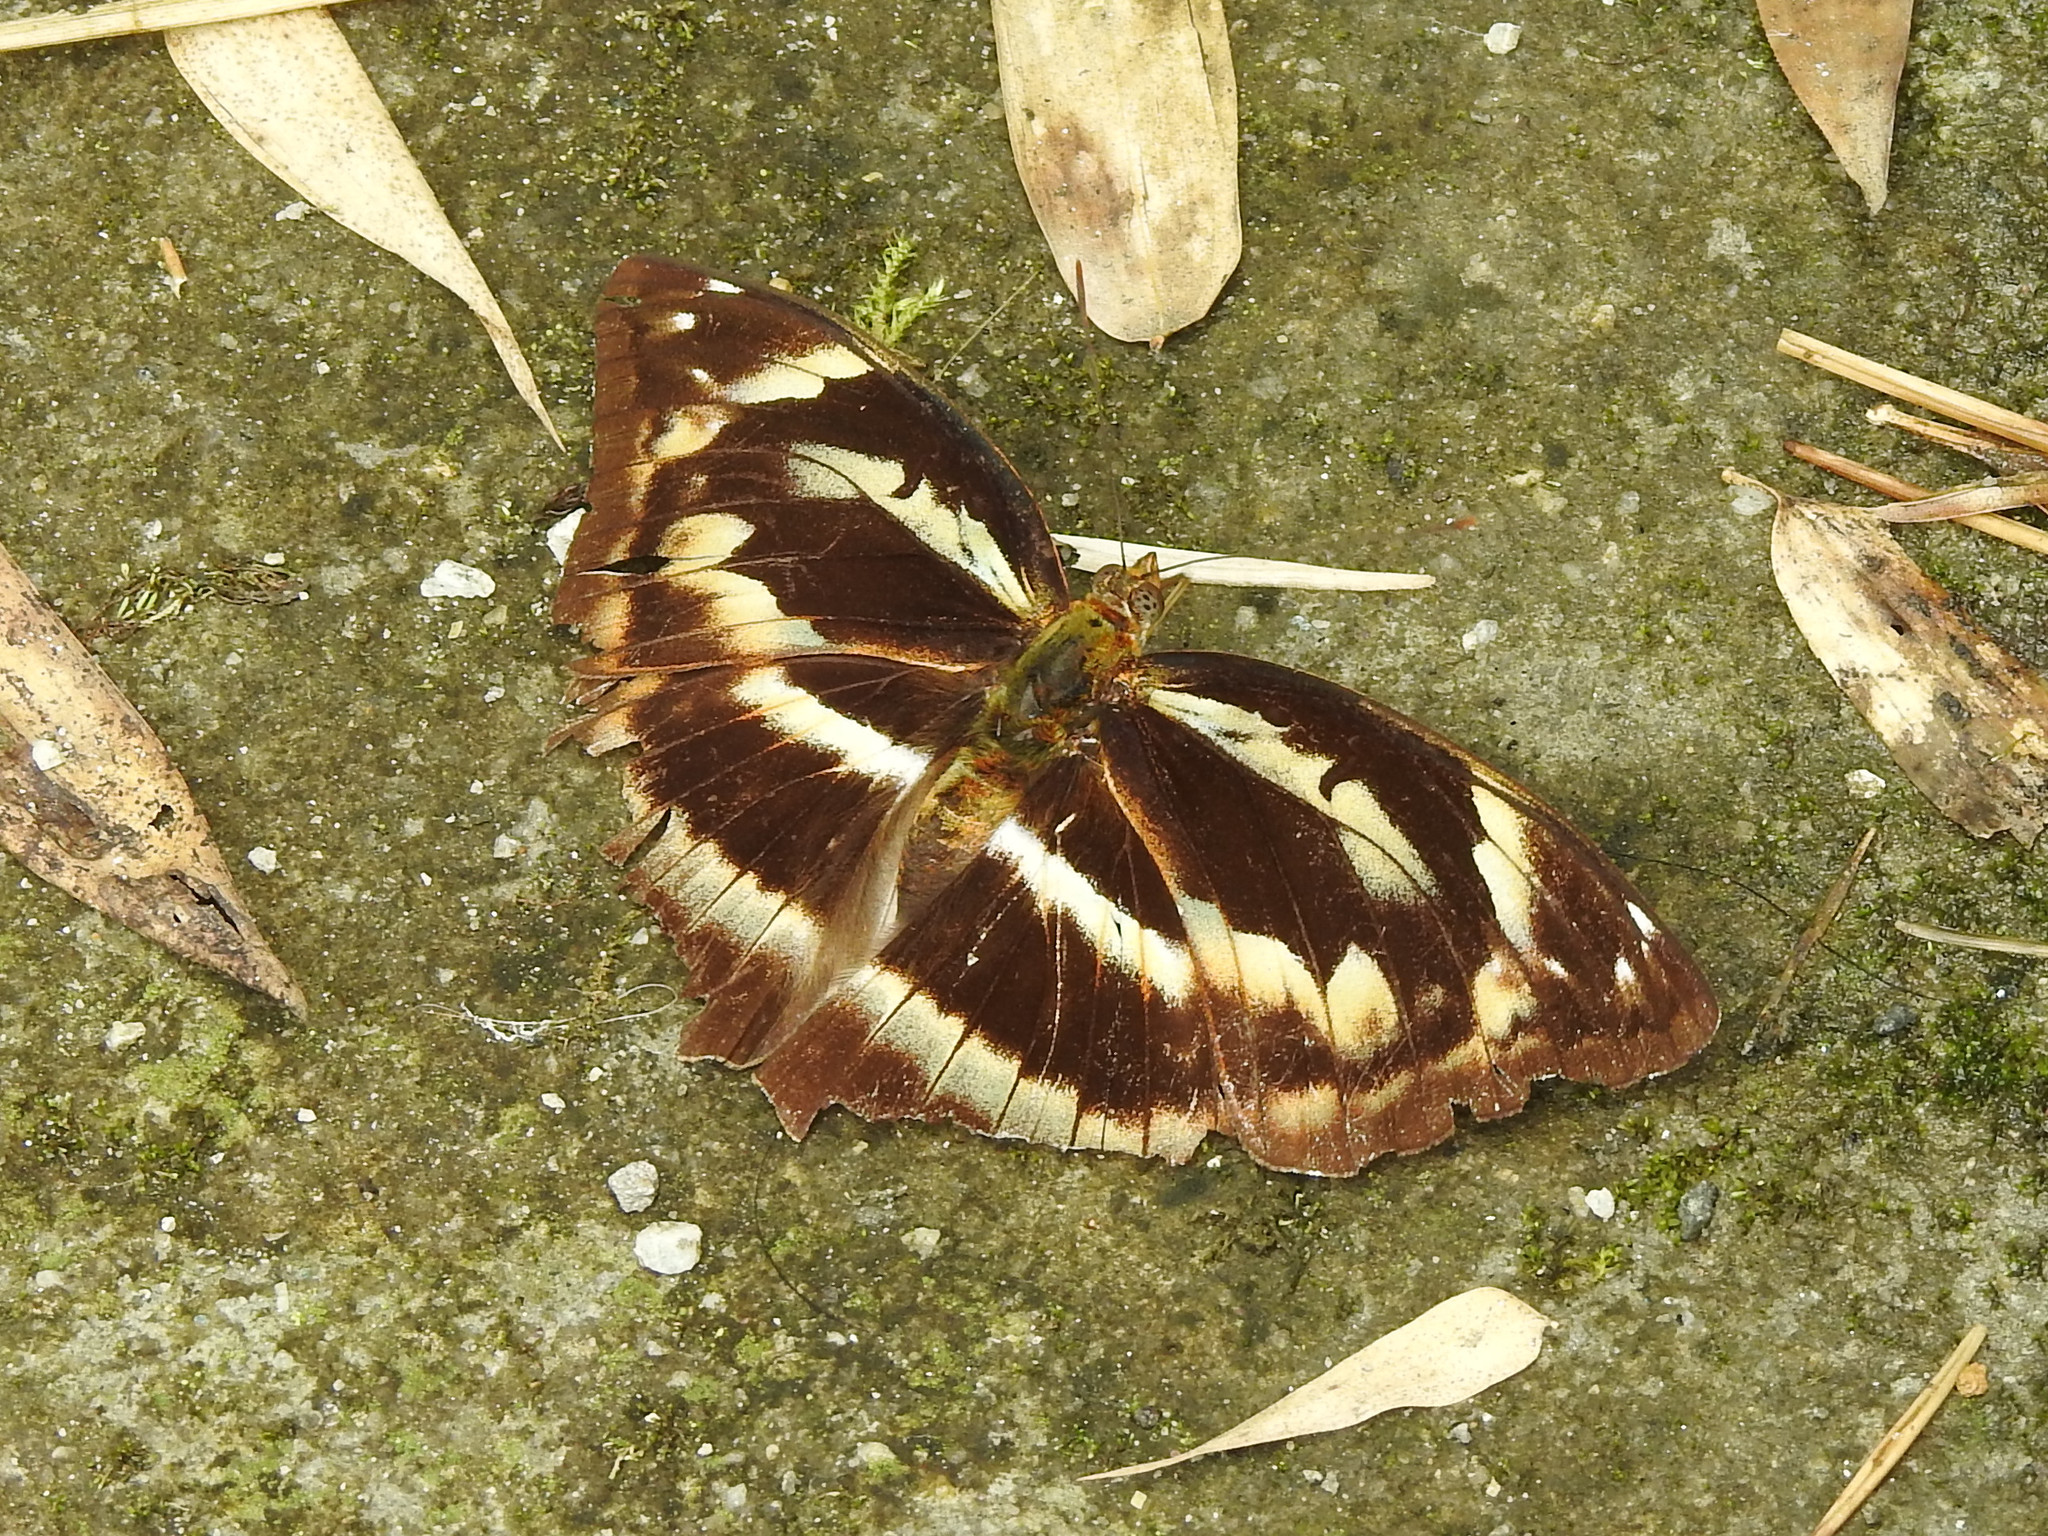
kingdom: Animalia
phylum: Arthropoda
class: Insecta
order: Lepidoptera
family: Nymphalidae
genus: Abrota
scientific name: Abrota ganga
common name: Sergeant-major
